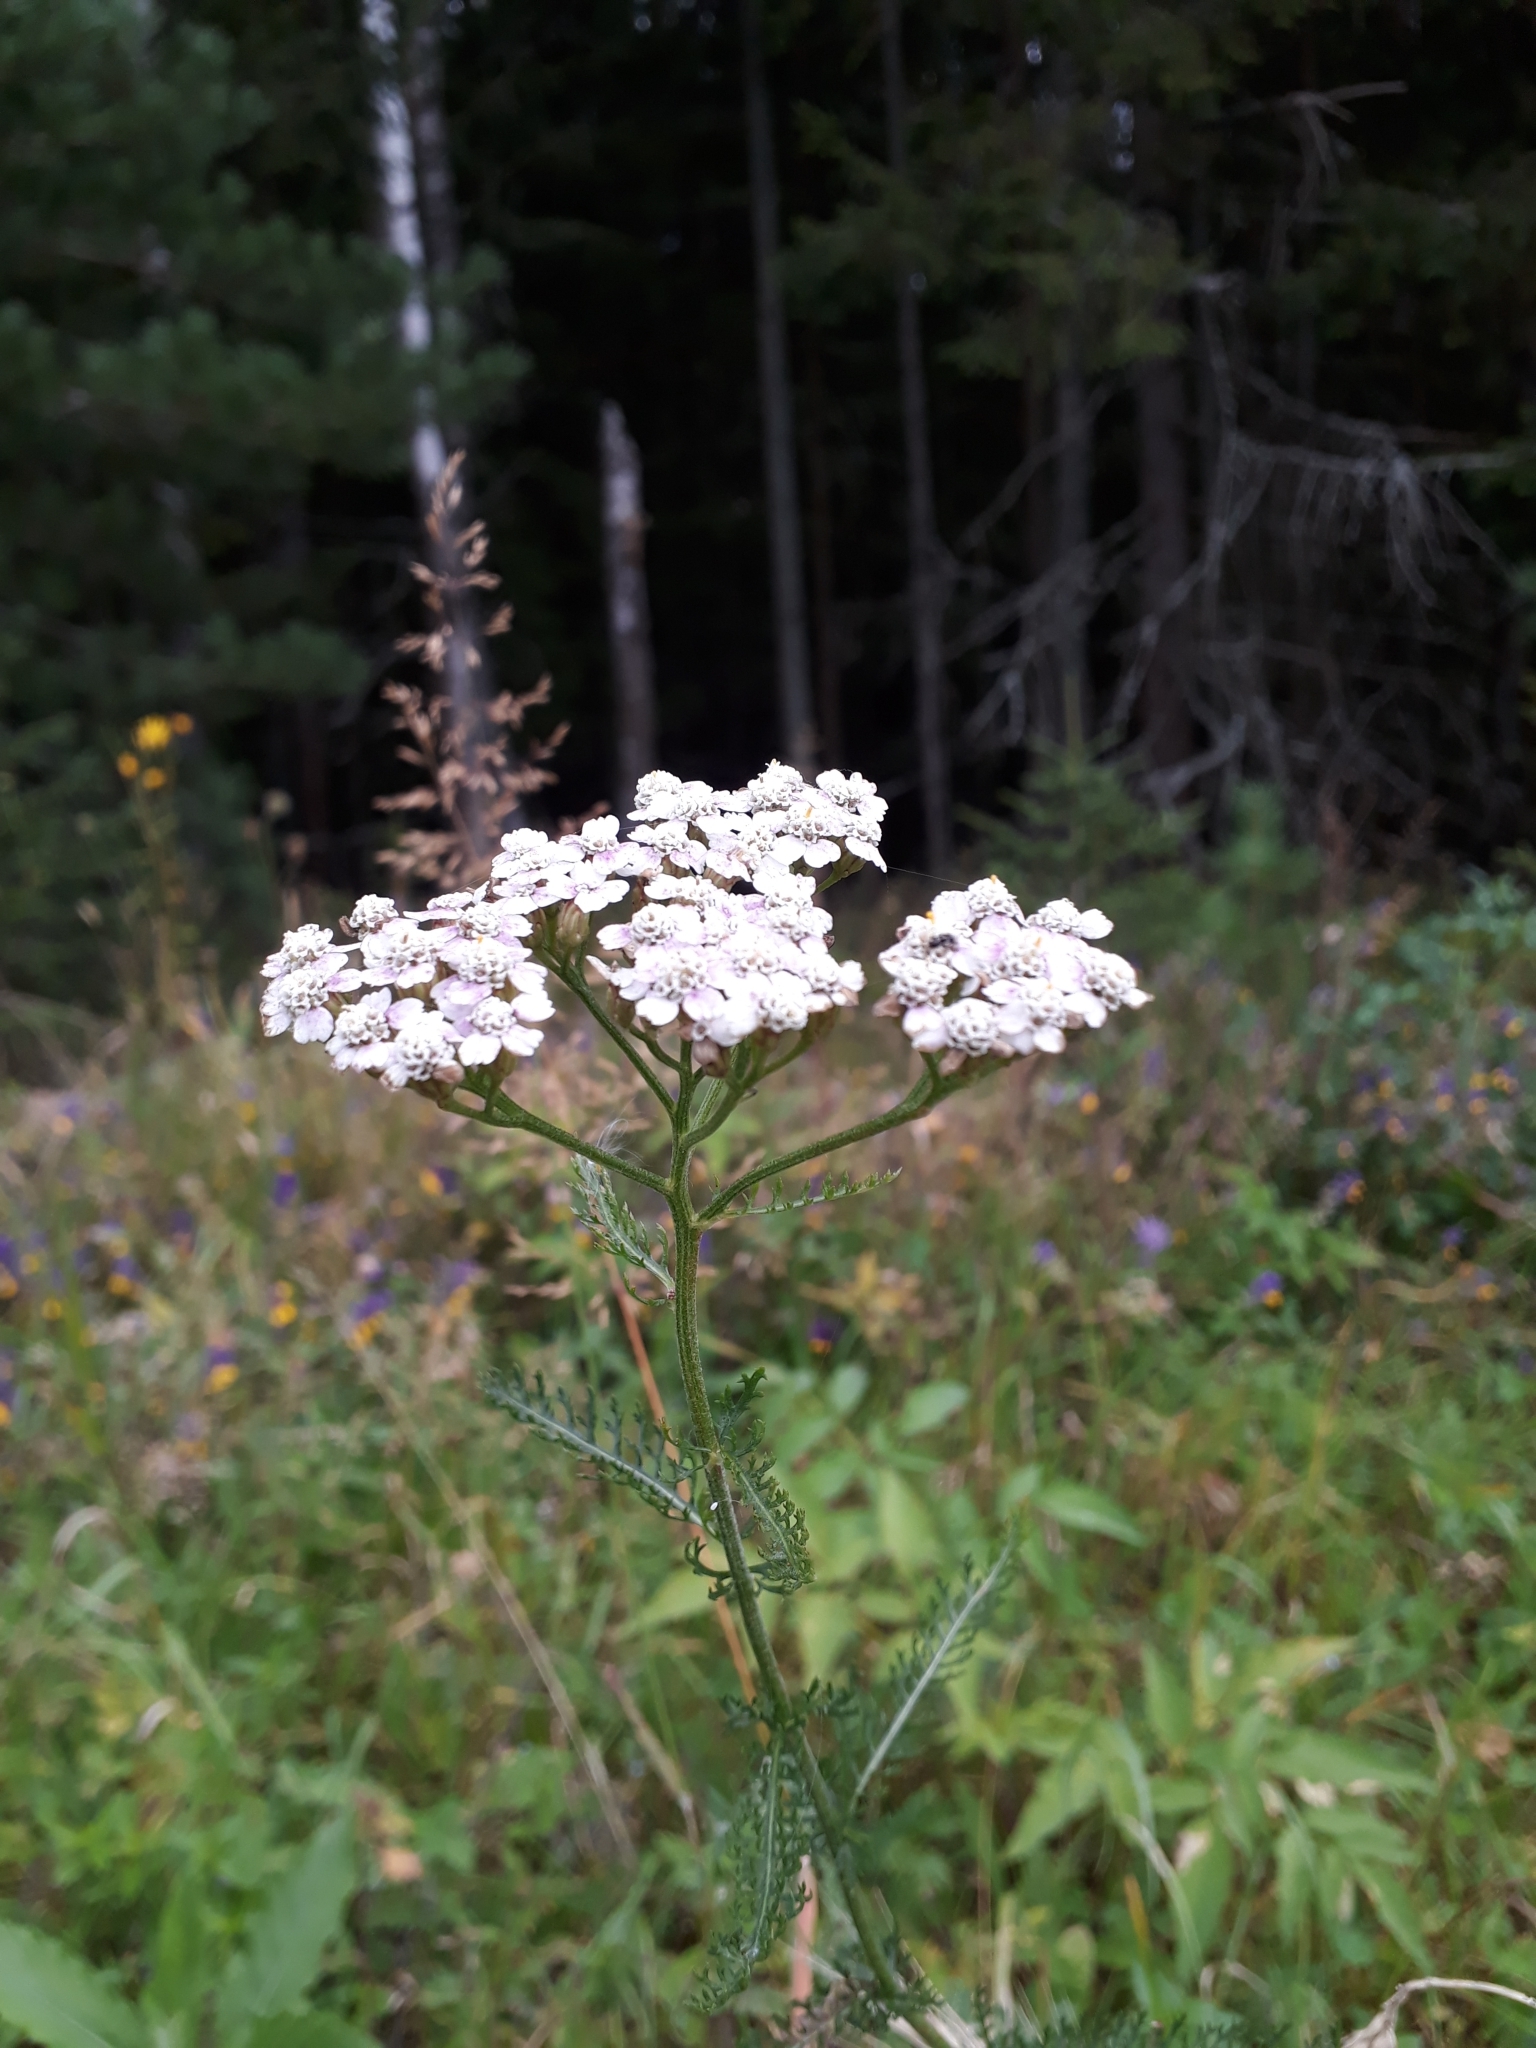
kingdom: Plantae
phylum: Tracheophyta
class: Magnoliopsida
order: Asterales
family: Asteraceae
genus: Achillea
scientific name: Achillea millefolium
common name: Yarrow
